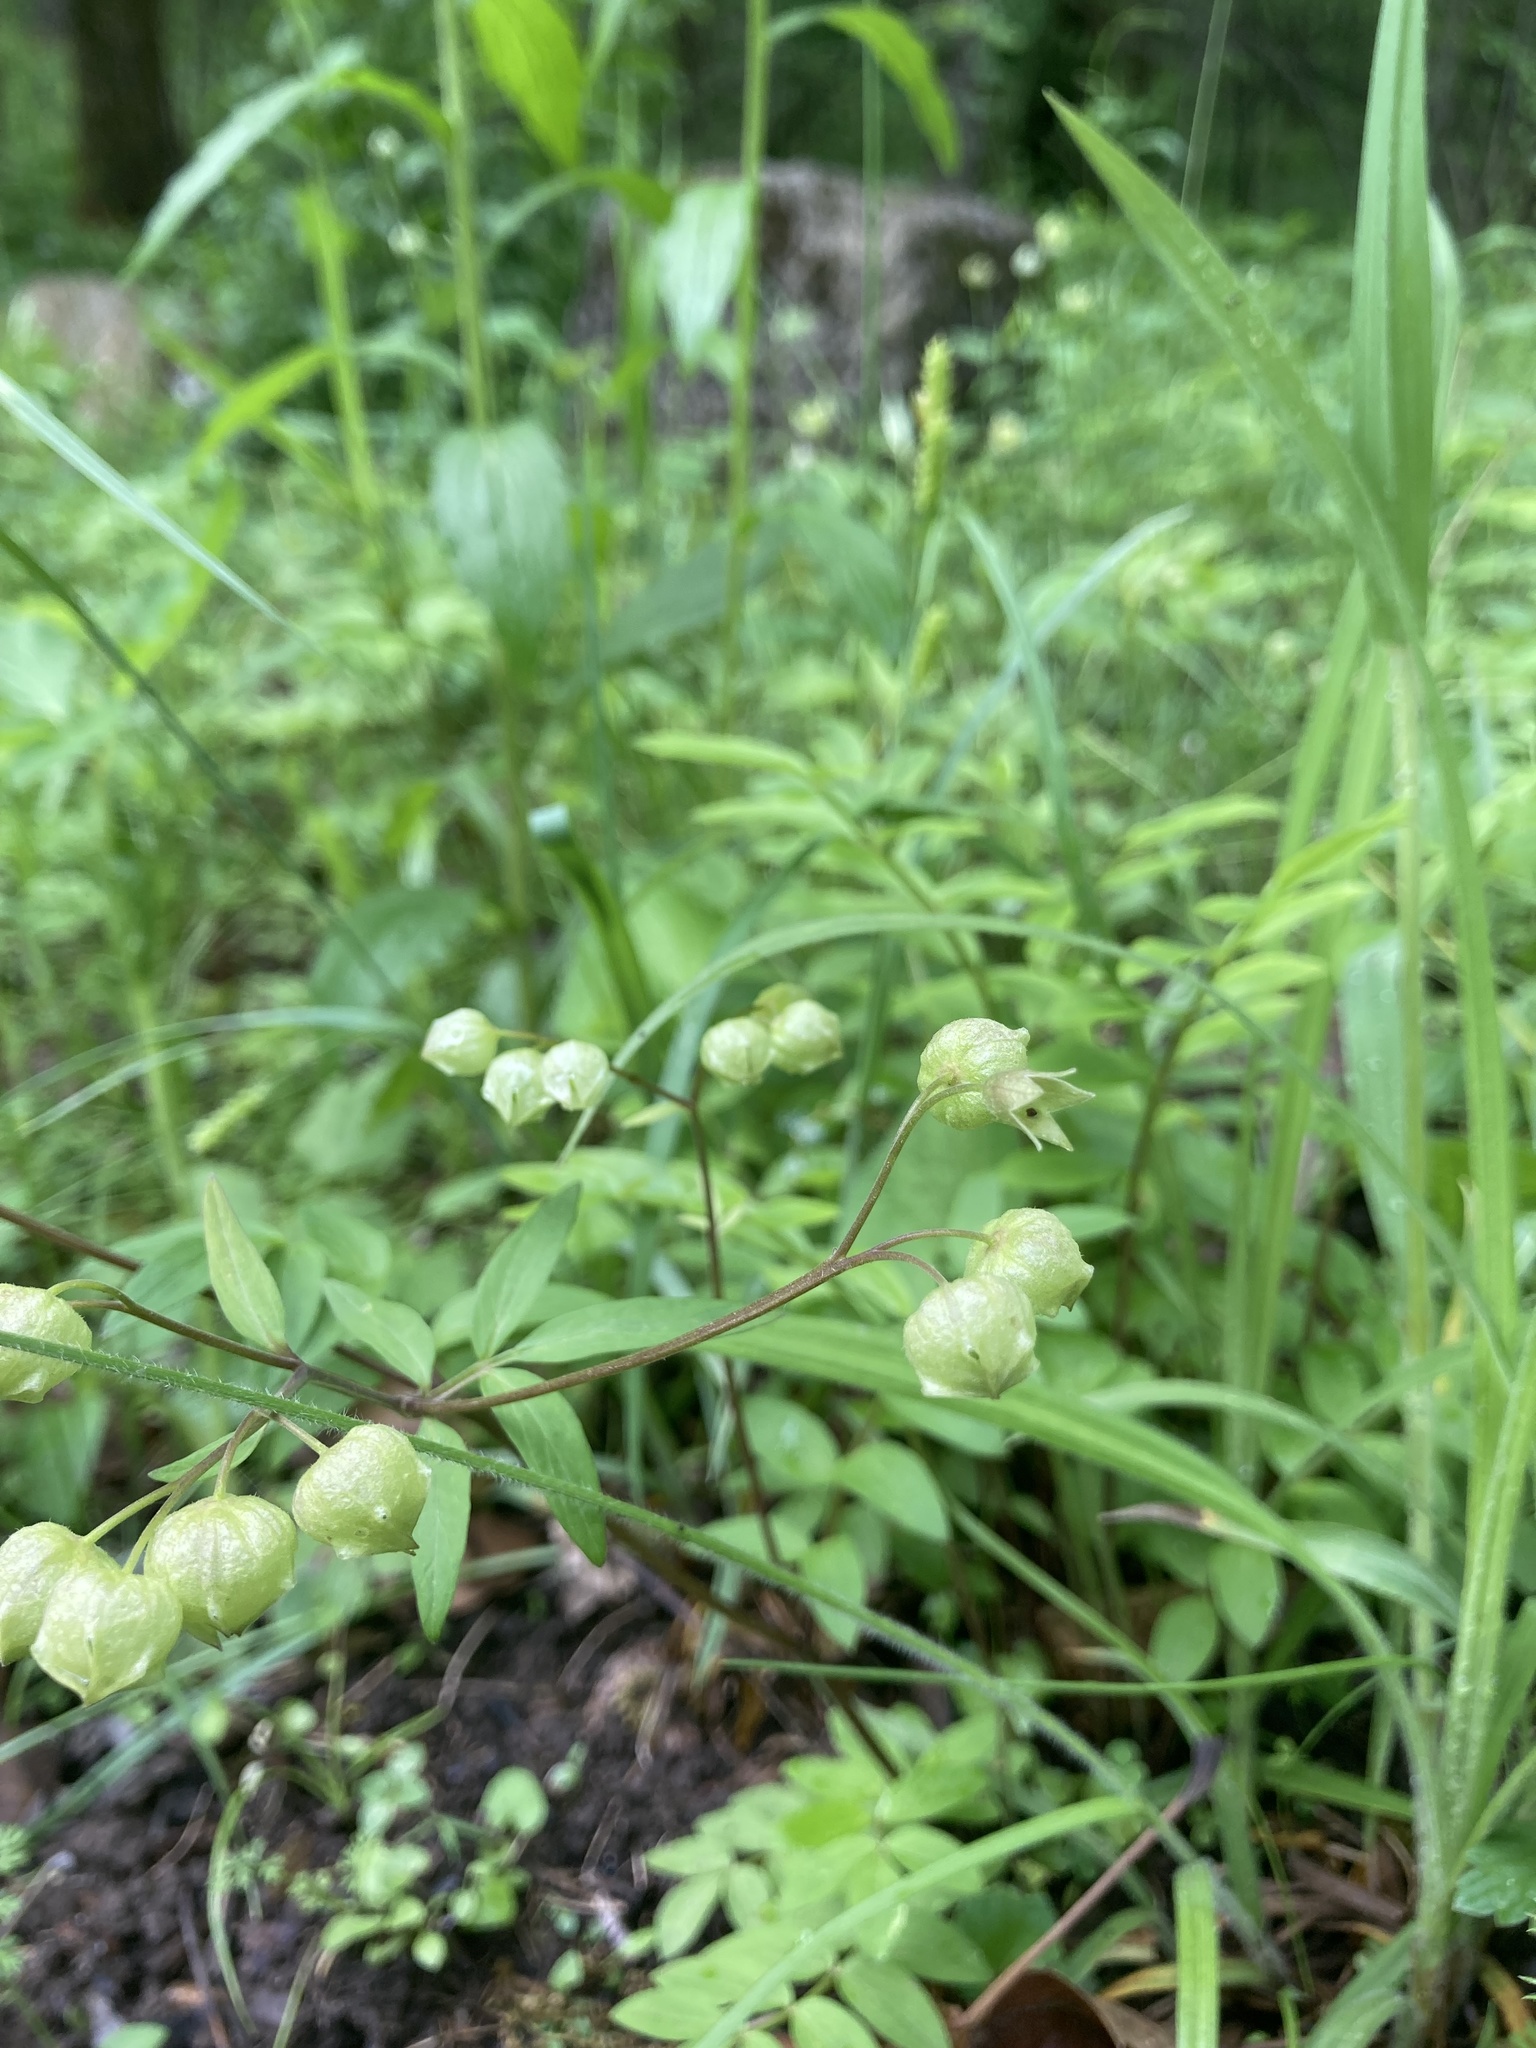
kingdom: Plantae
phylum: Tracheophyta
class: Magnoliopsida
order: Ericales
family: Polemoniaceae
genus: Polemonium
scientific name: Polemonium reptans
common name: Creeping jacob's-ladder
